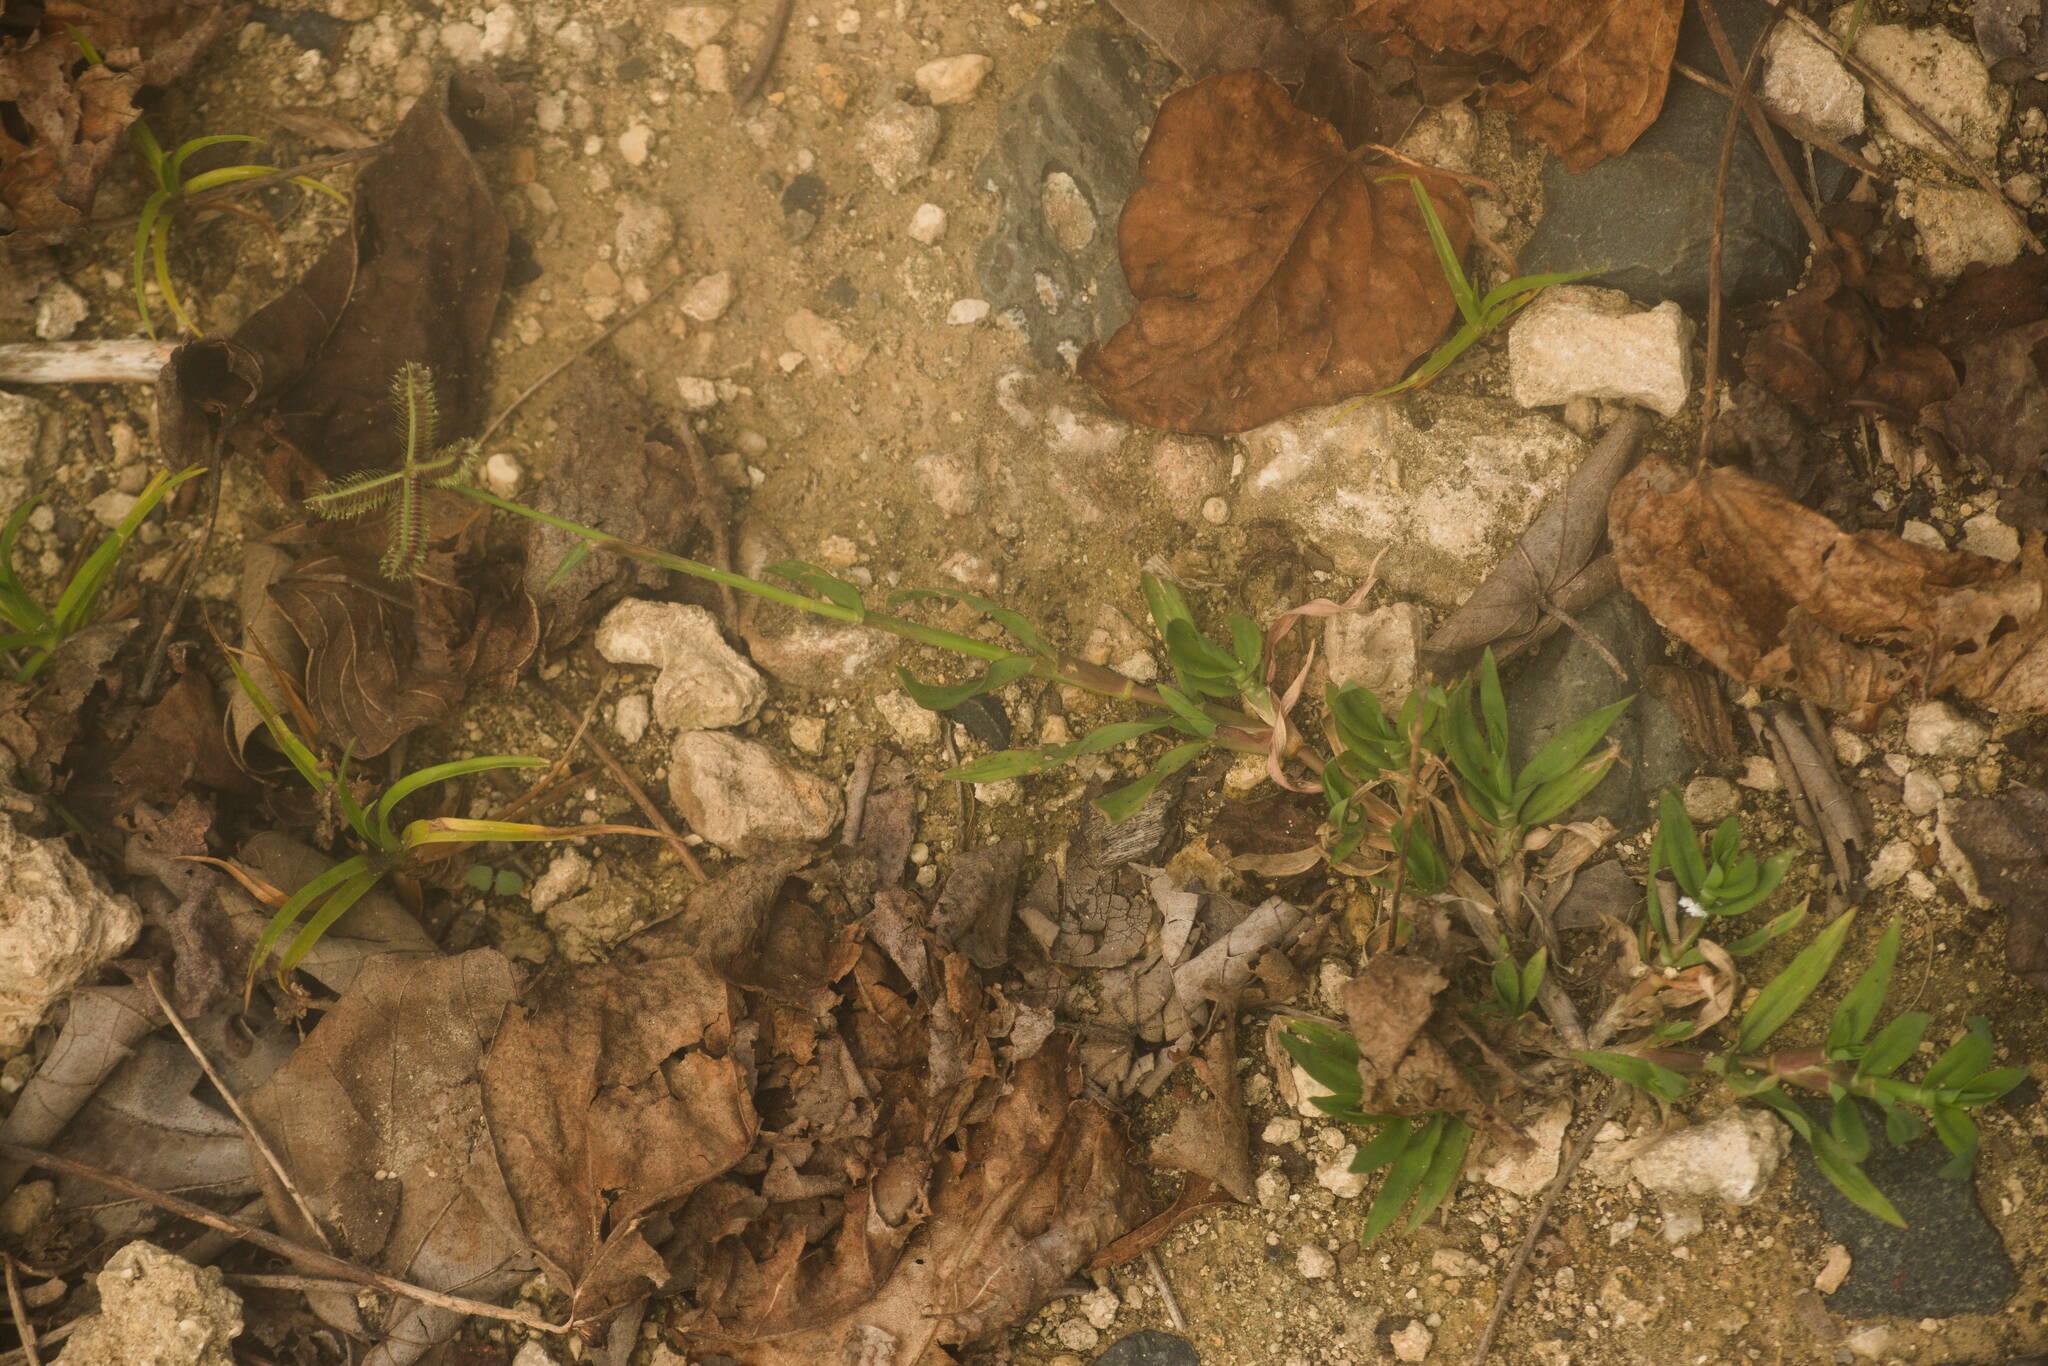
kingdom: Plantae
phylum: Tracheophyta
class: Liliopsida
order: Poales
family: Poaceae
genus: Dactyloctenium
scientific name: Dactyloctenium aegyptium
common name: Egyptian grass
